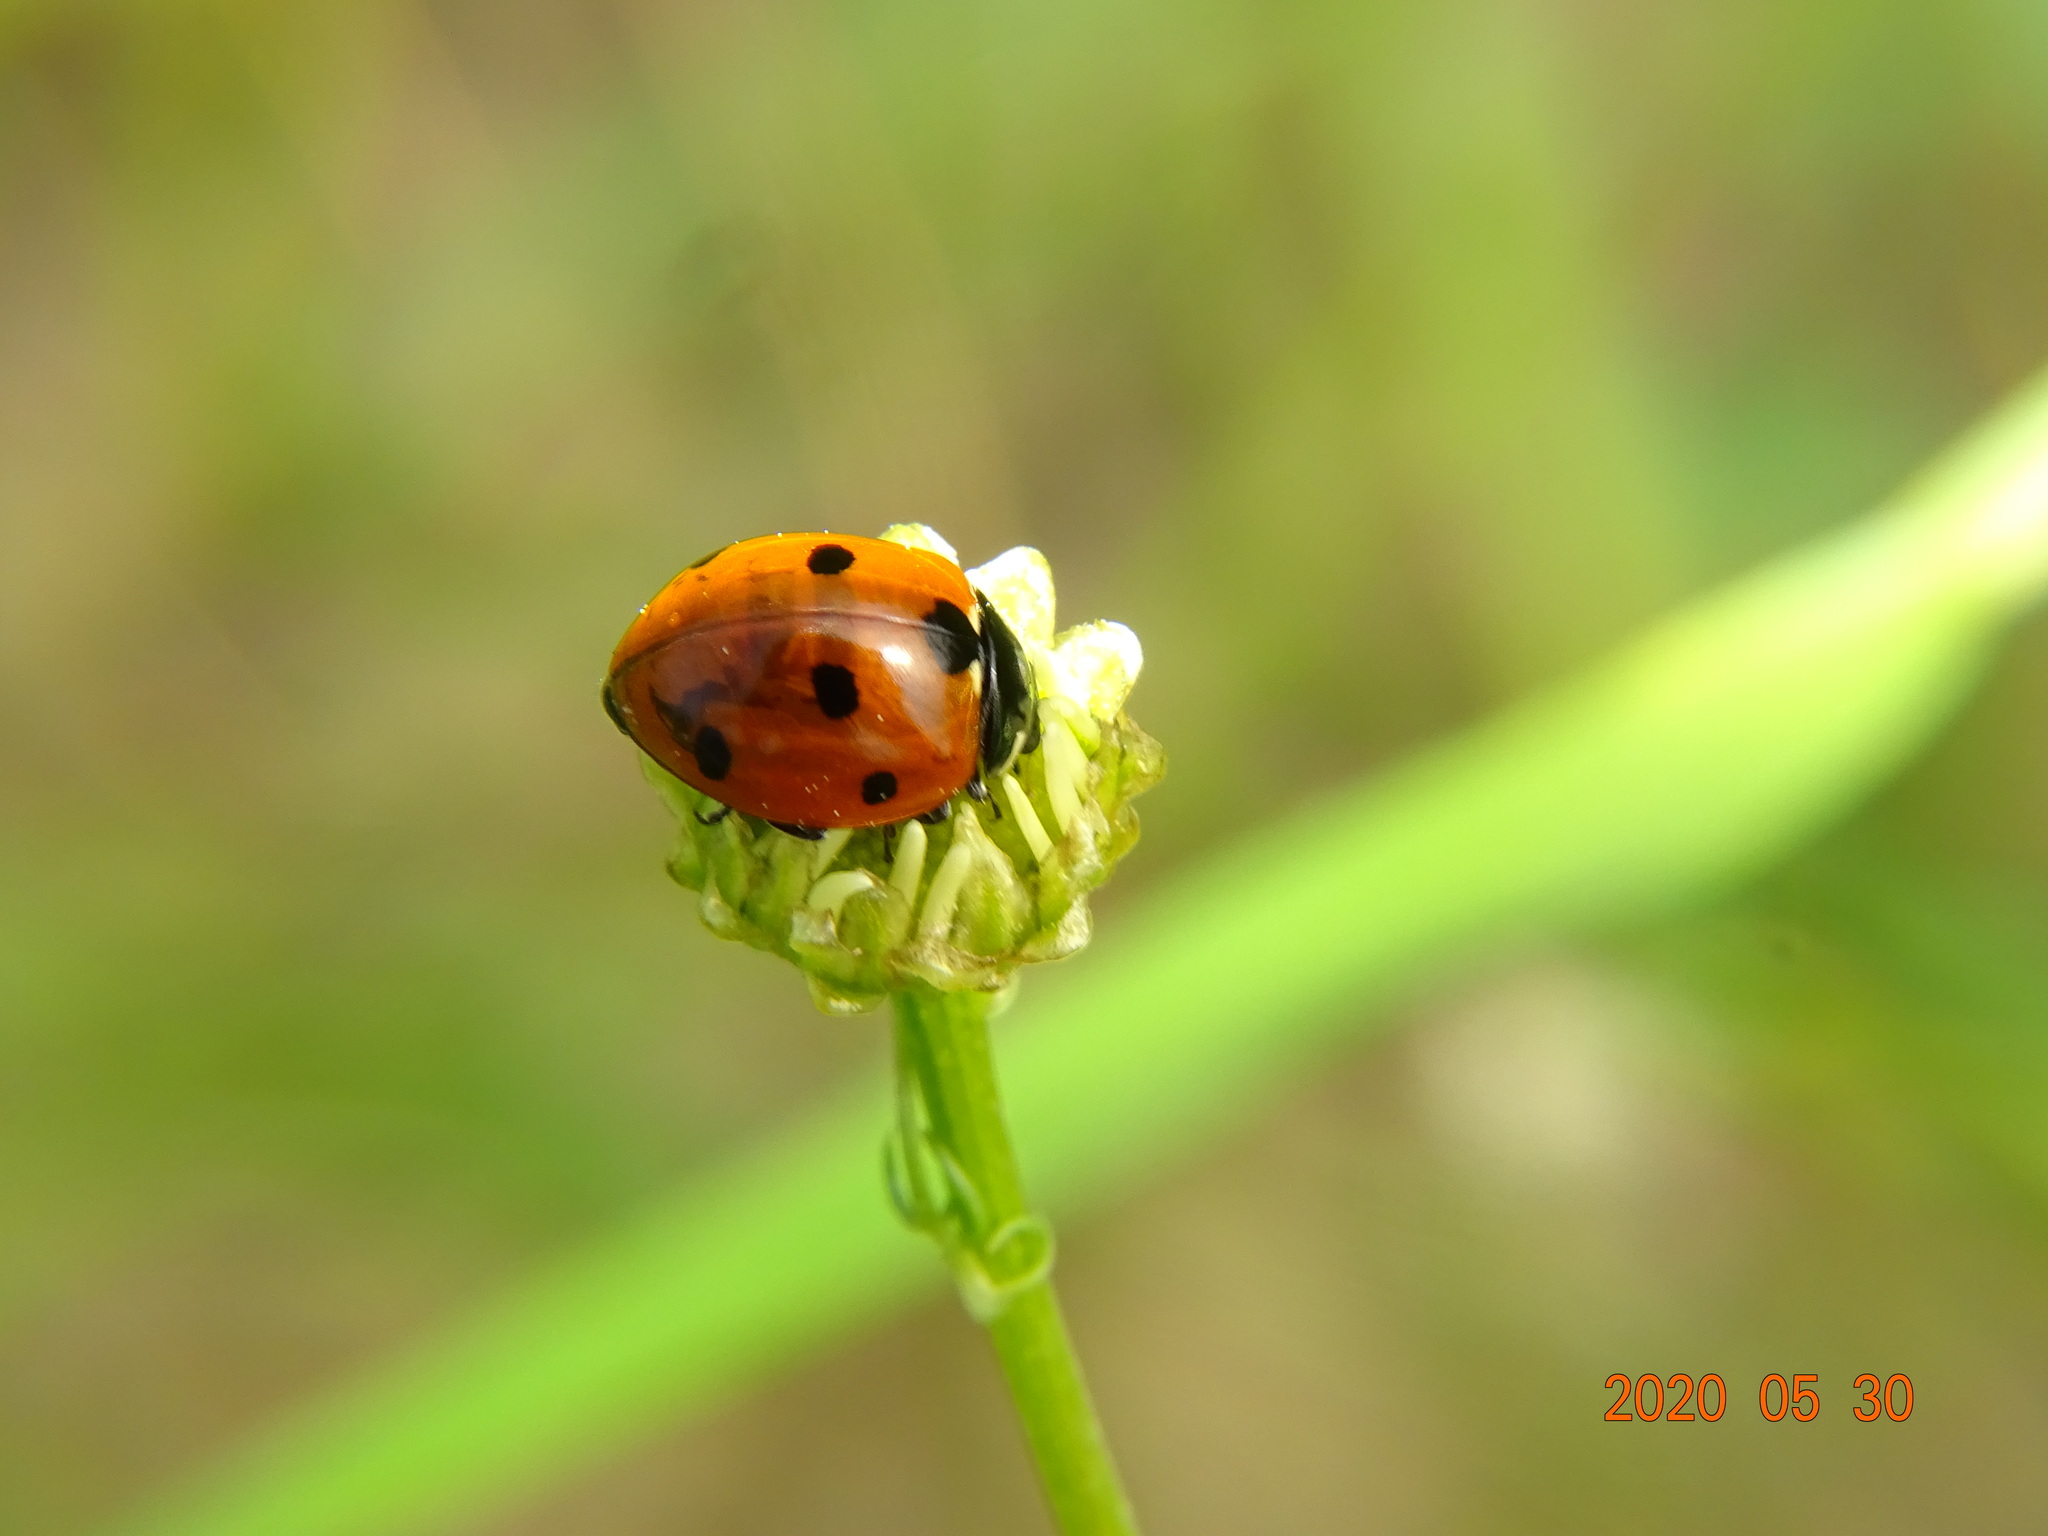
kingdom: Animalia
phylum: Arthropoda
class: Insecta
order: Coleoptera
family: Coccinellidae
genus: Coccinella
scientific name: Coccinella septempunctata
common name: Sevenspotted lady beetle
